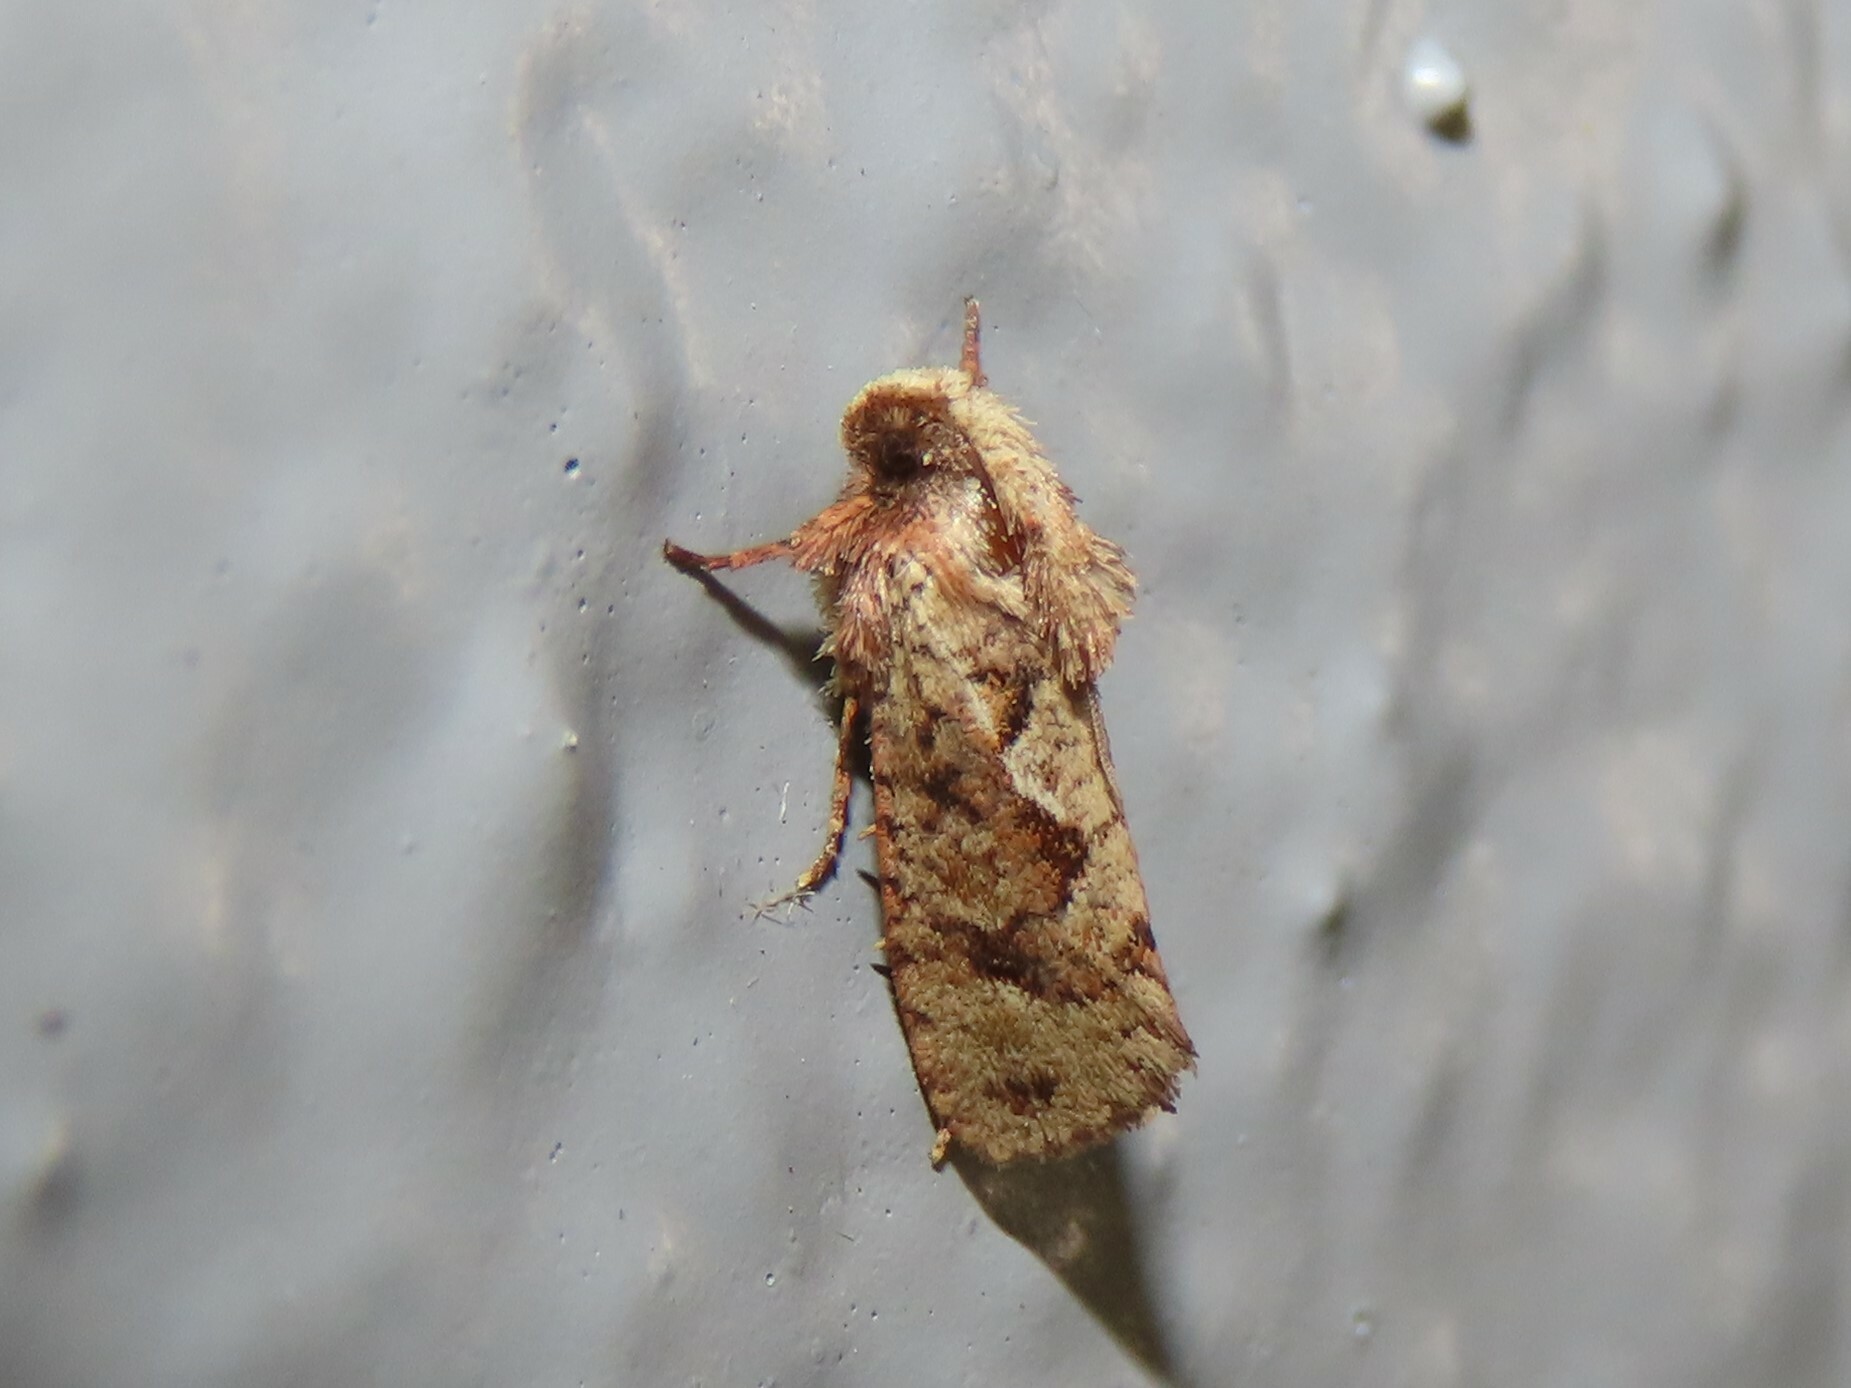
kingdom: Animalia
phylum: Arthropoda
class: Insecta
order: Lepidoptera
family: Tineidae
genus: Acrolophus
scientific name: Acrolophus walsinghami
